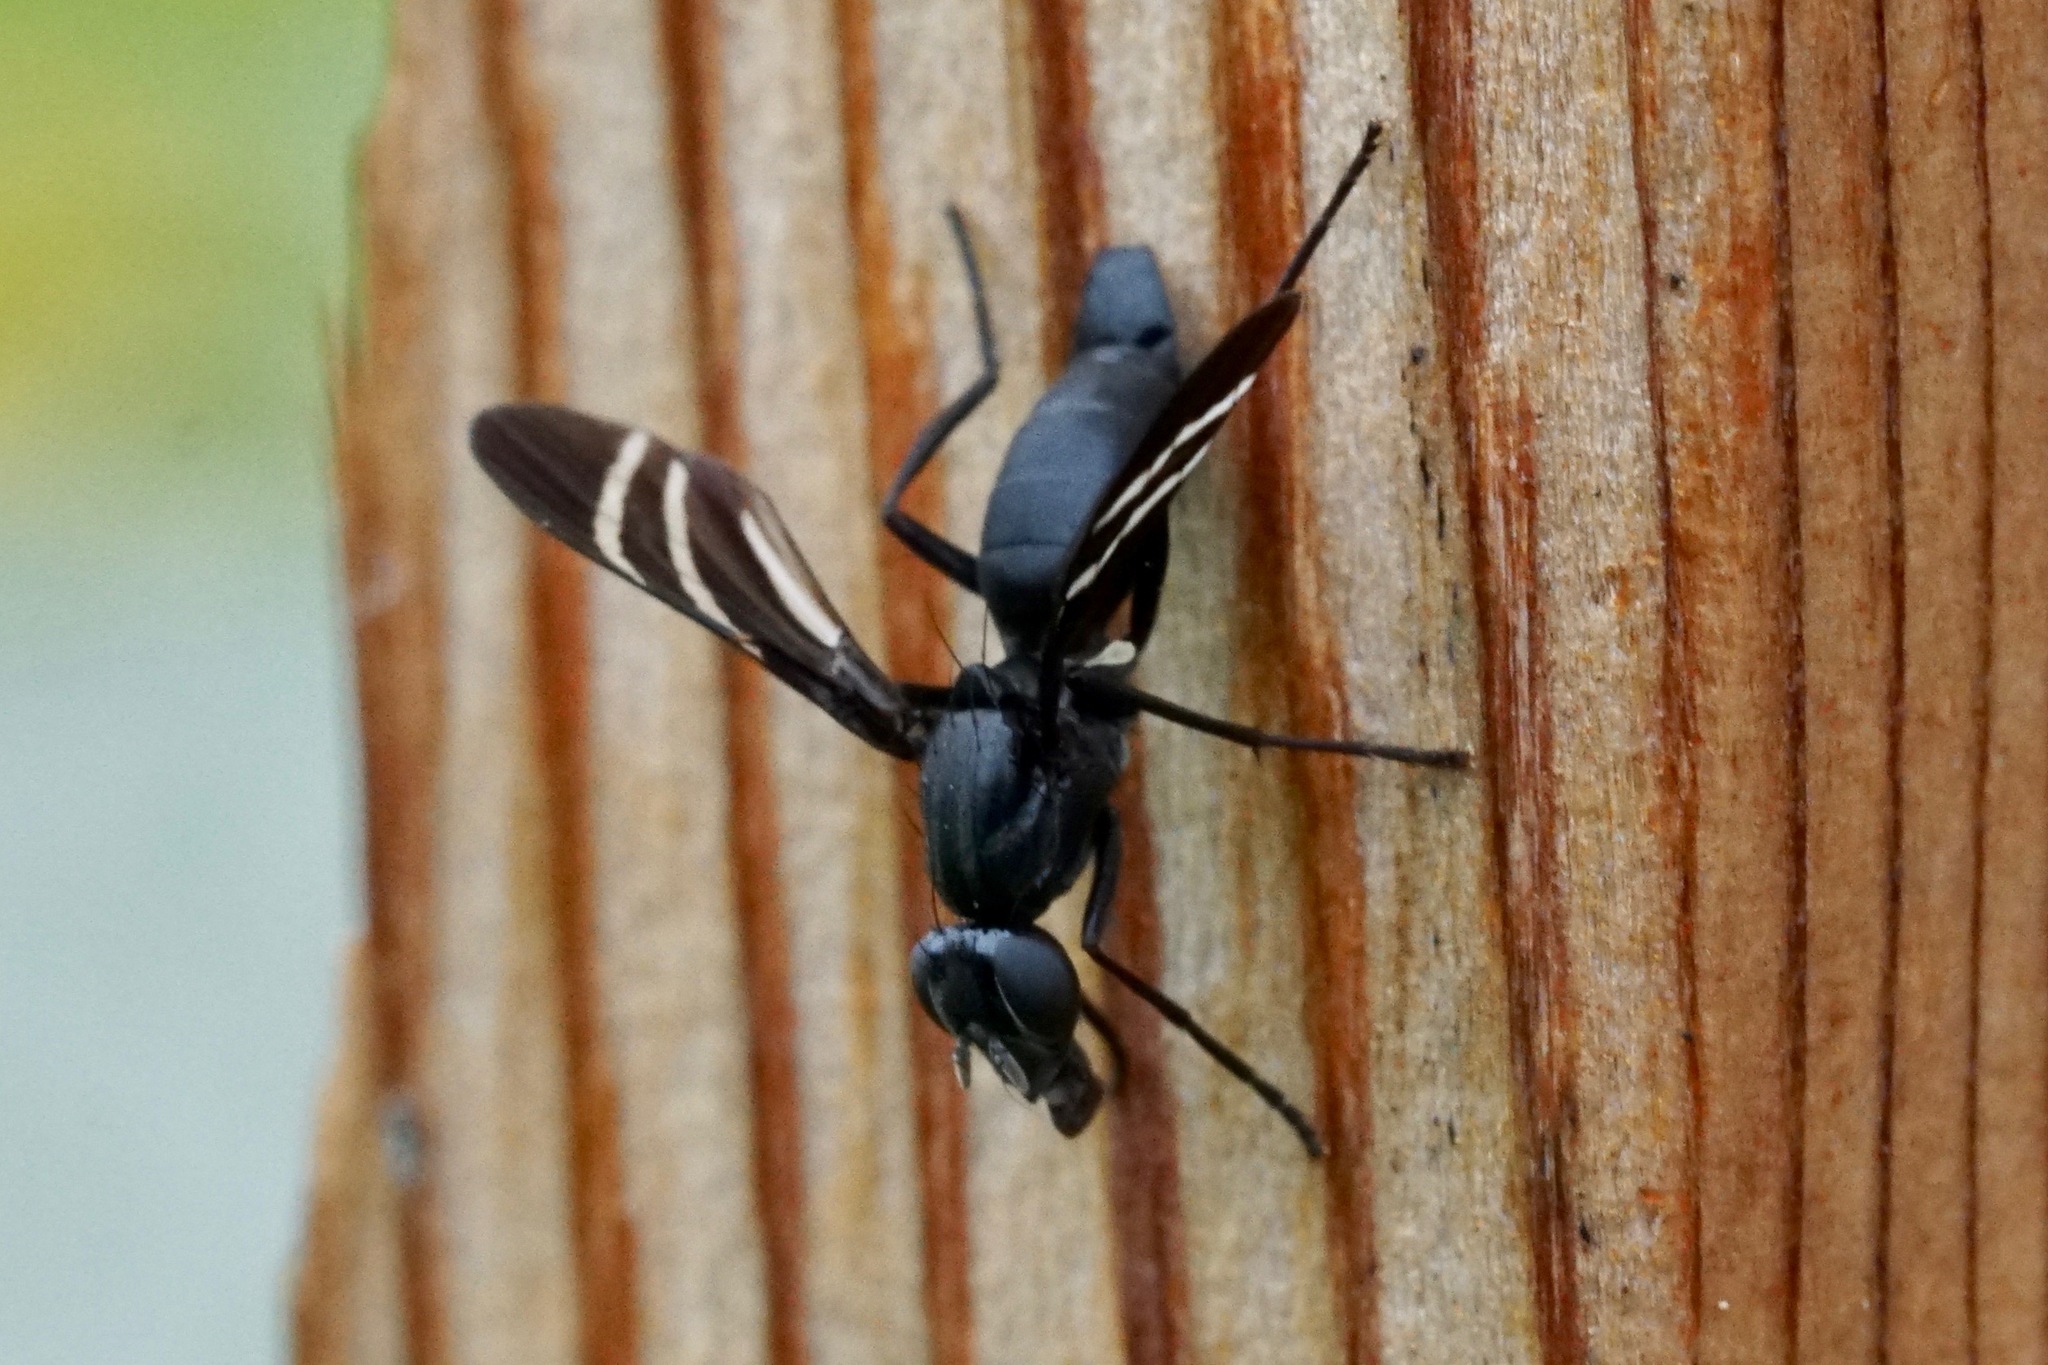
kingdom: Animalia
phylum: Arthropoda
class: Insecta
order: Diptera
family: Ulidiidae
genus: Tritoxa
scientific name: Tritoxa flexa
